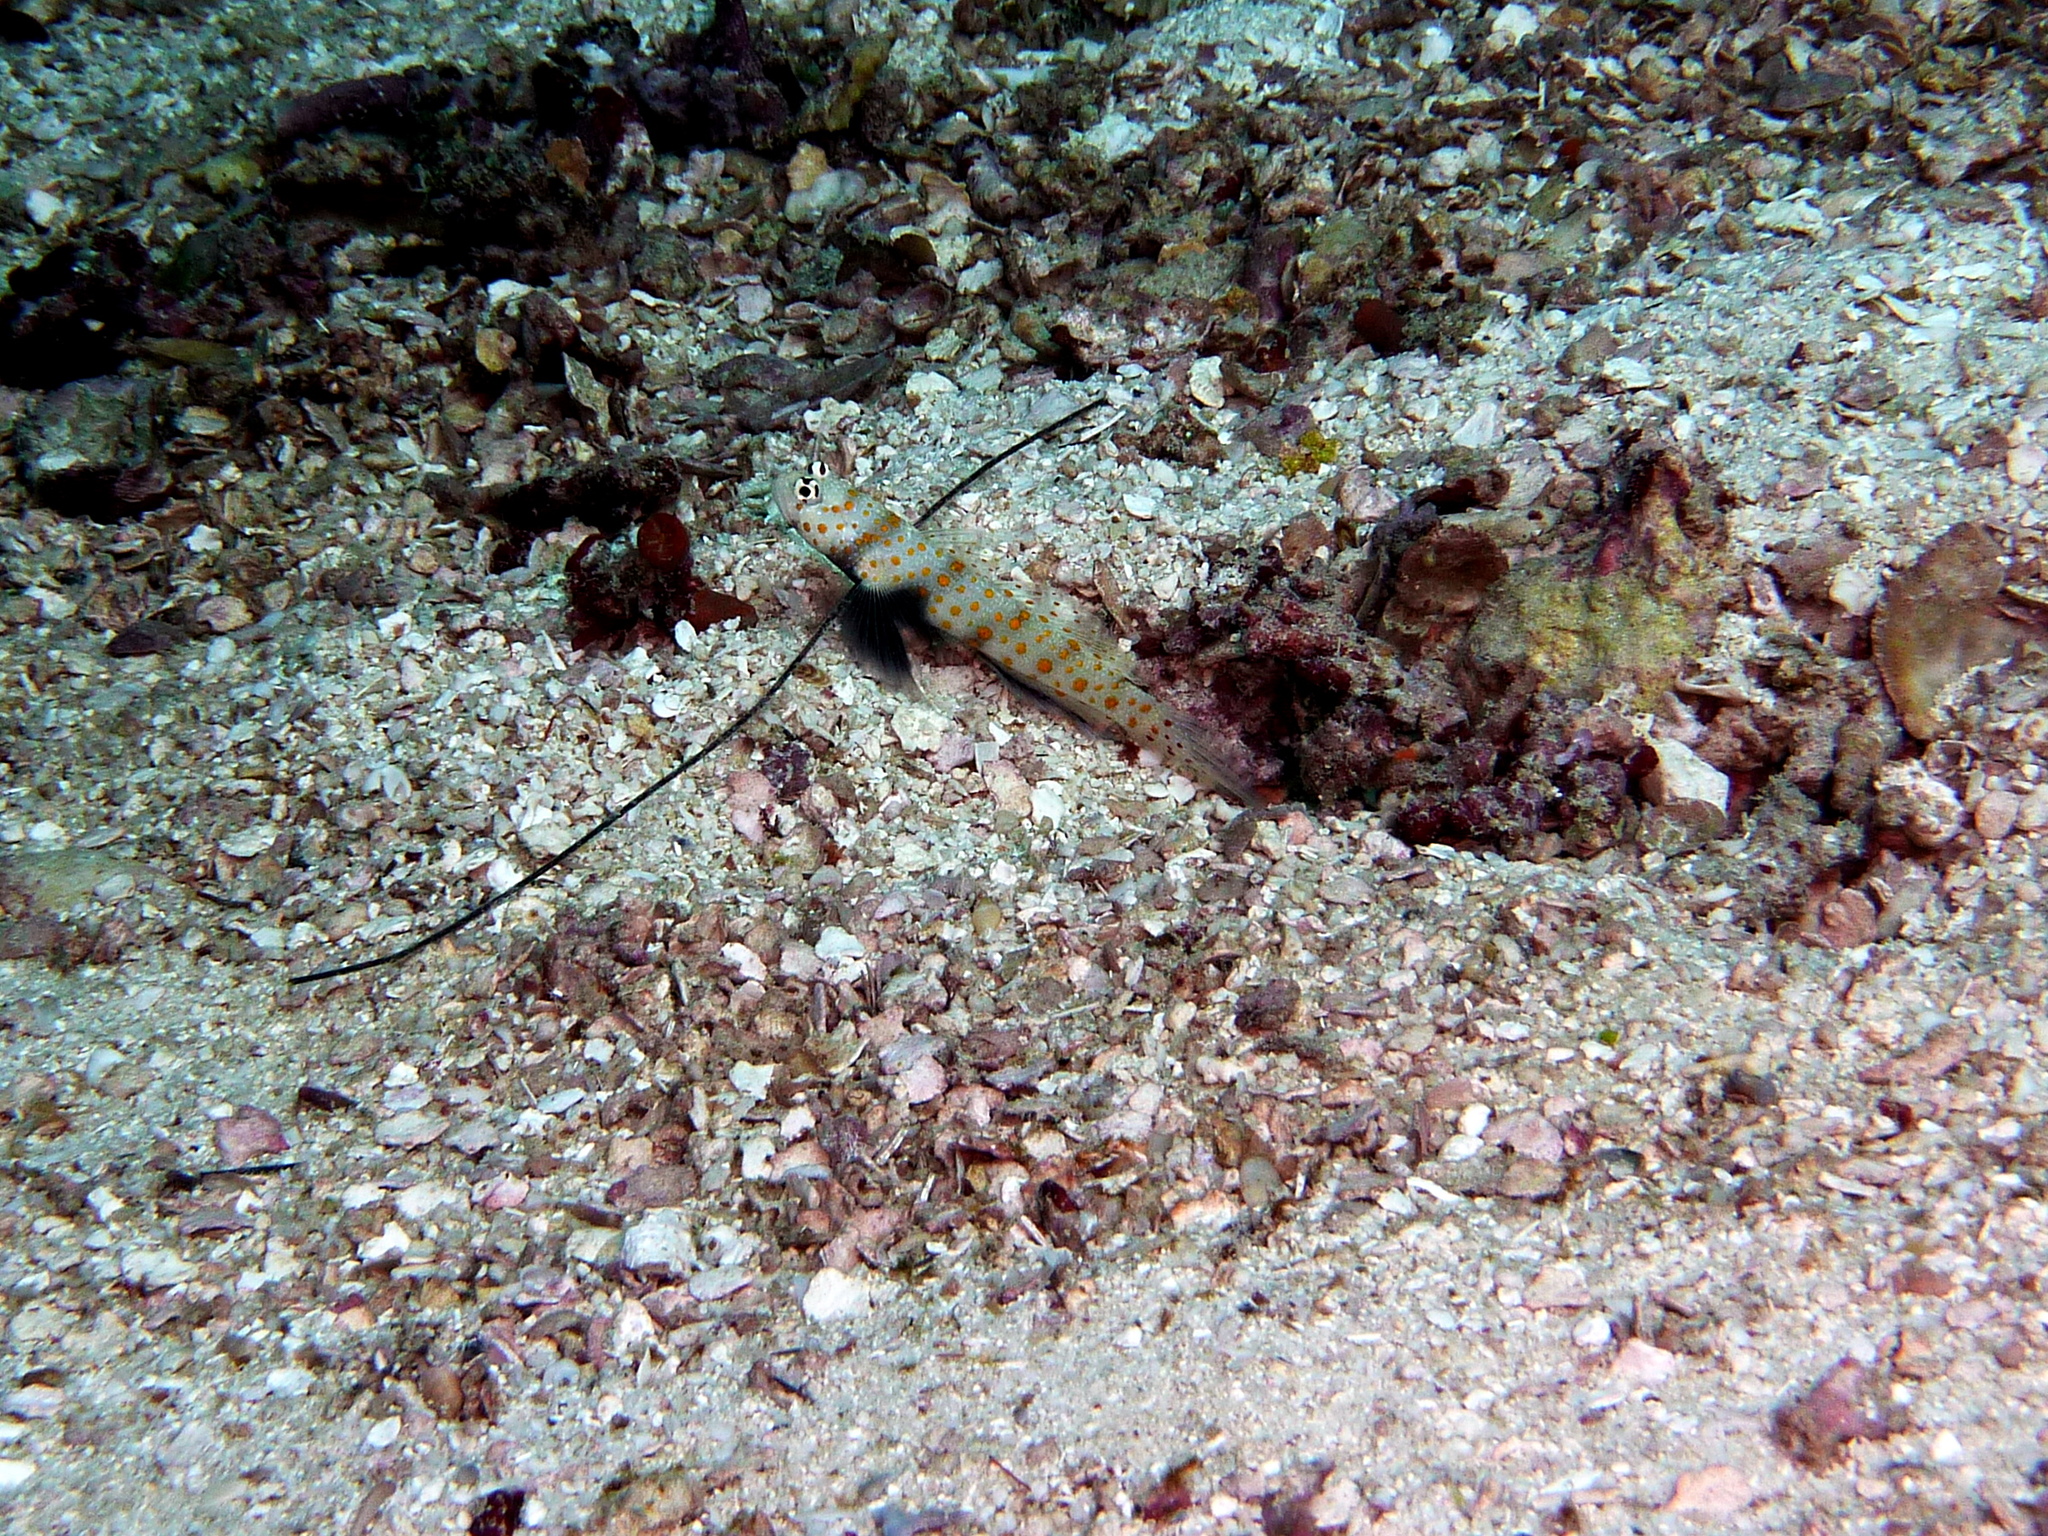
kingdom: Animalia
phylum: Chordata
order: Perciformes
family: Gobiidae
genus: Amblyeleotris
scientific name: Amblyeleotris guttata
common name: Black-chest shrimp-goby
